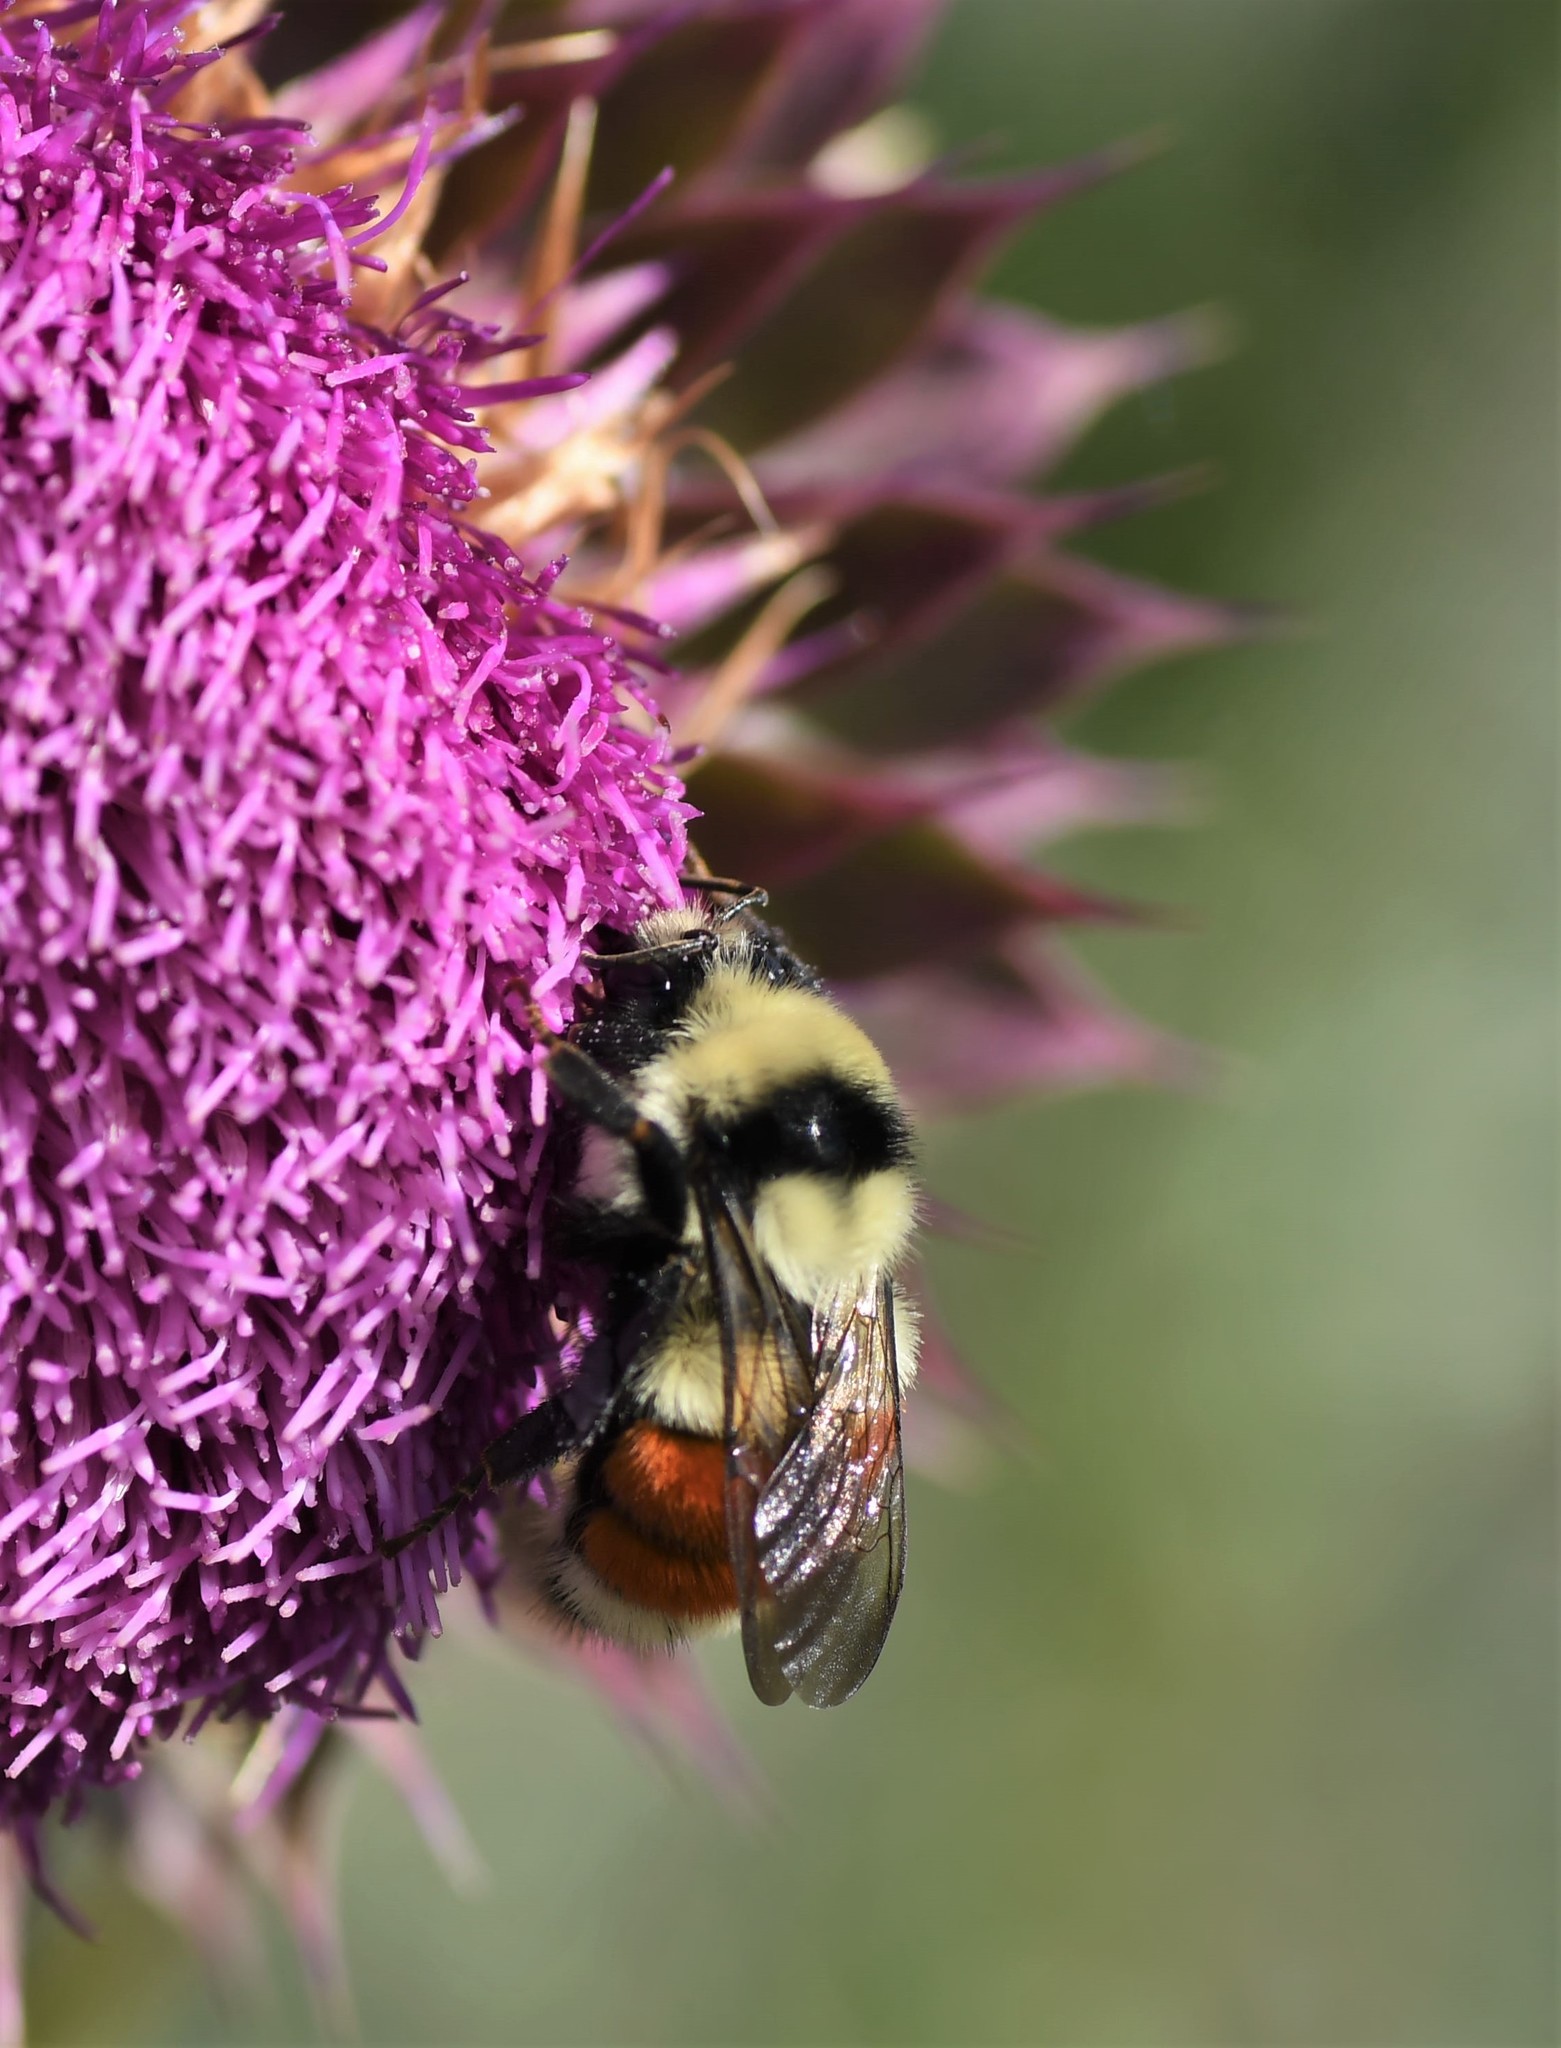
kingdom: Animalia
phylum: Arthropoda
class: Insecta
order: Hymenoptera
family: Apidae
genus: Bombus
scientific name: Bombus huntii
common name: Hunt bumble bee
